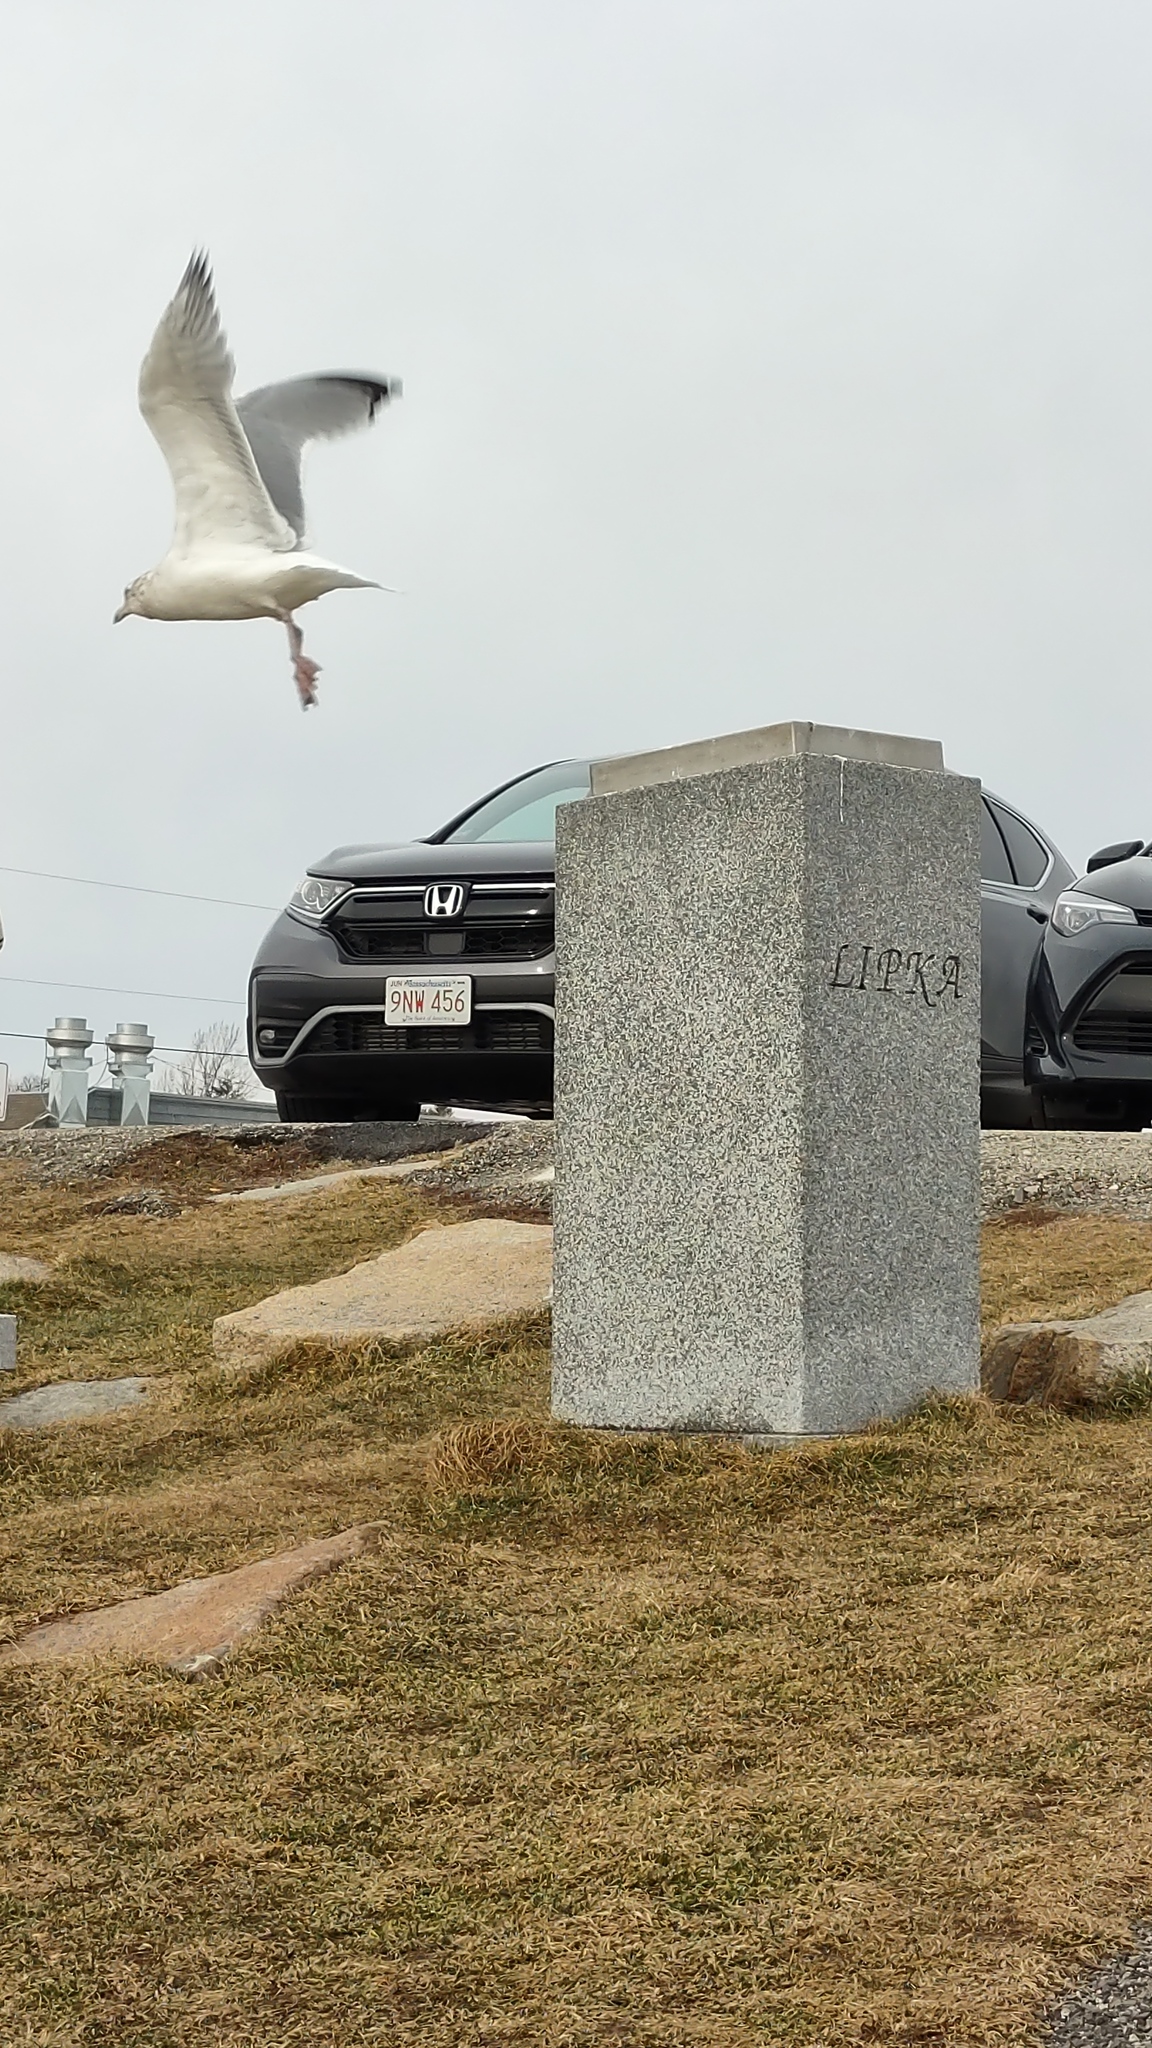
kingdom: Animalia
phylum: Chordata
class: Aves
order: Charadriiformes
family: Laridae
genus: Larus
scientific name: Larus argentatus
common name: Herring gull
